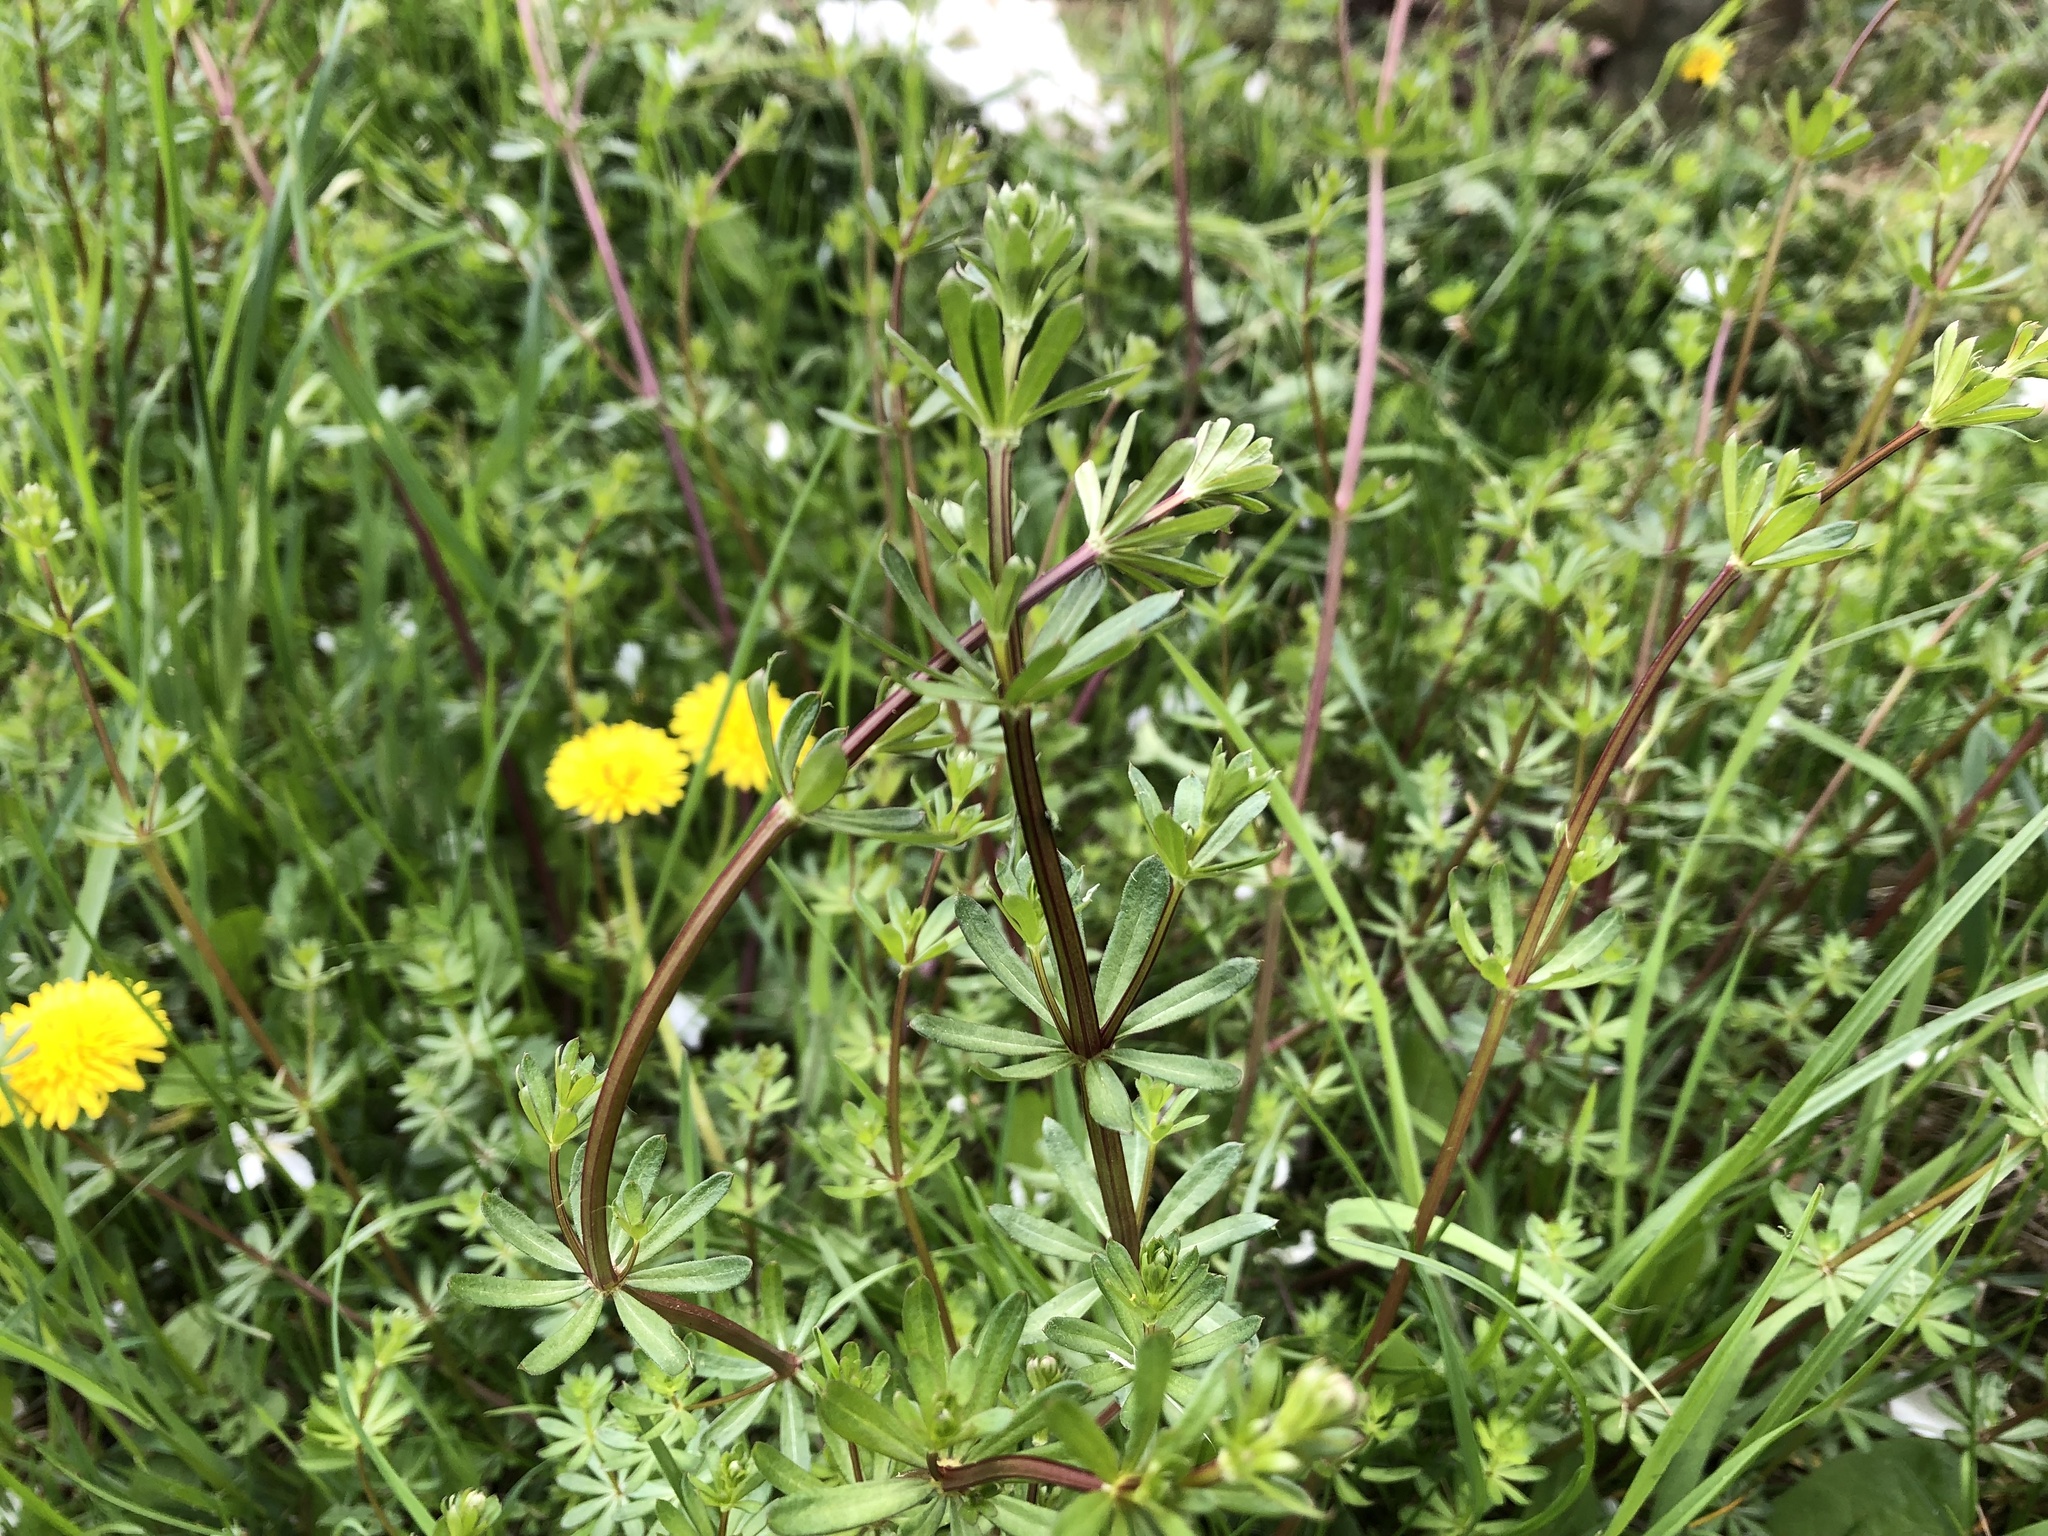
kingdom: Plantae
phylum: Tracheophyta
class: Magnoliopsida
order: Gentianales
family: Rubiaceae
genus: Galium
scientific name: Galium album
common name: White bedstraw
